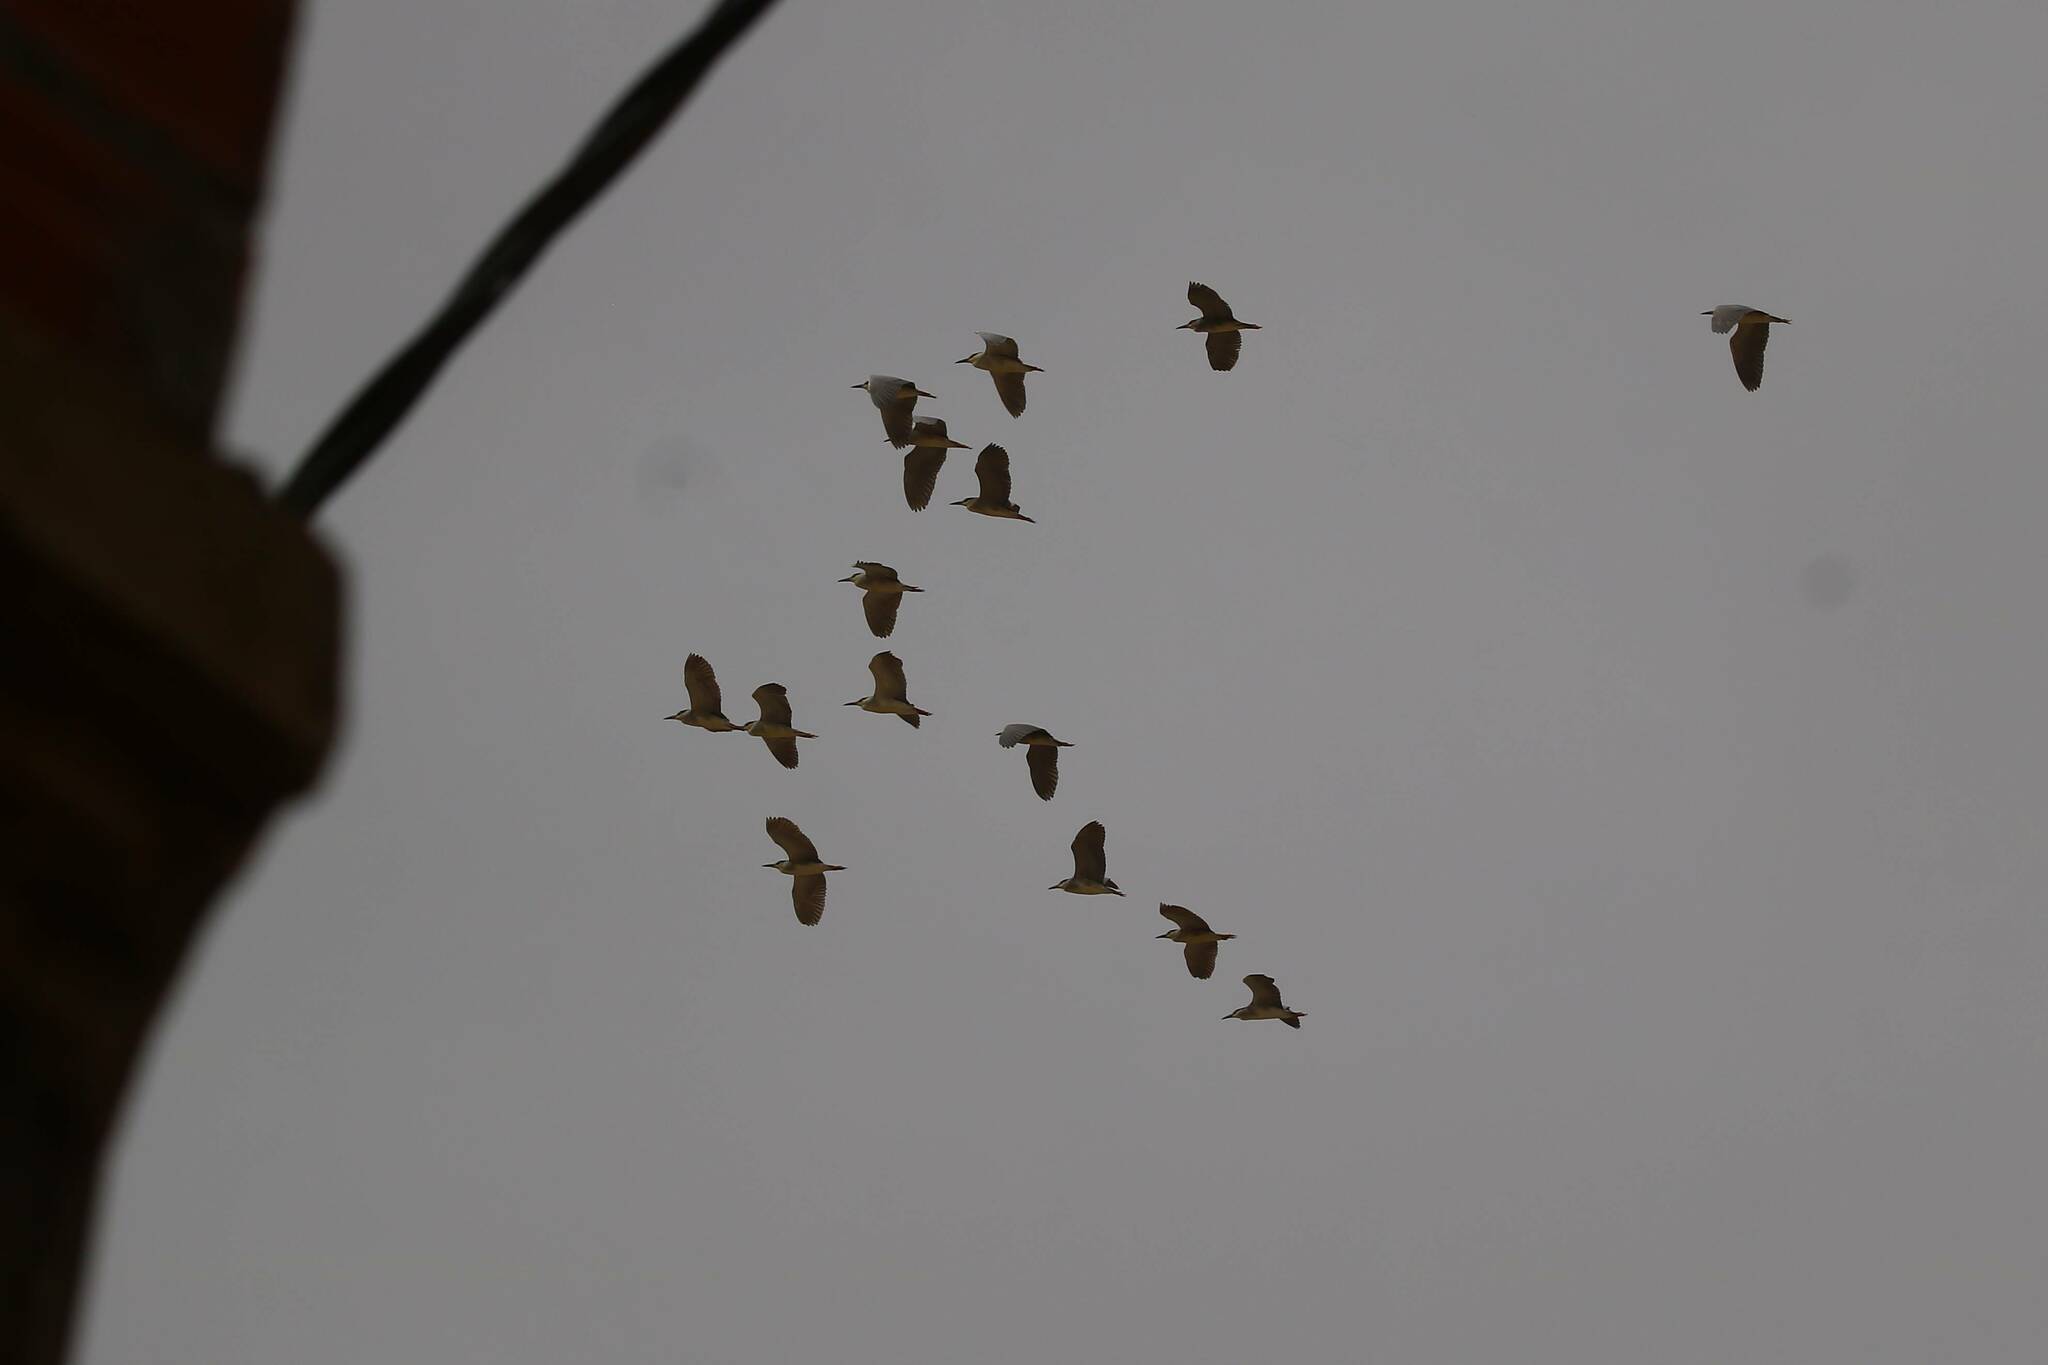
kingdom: Animalia
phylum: Chordata
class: Aves
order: Pelecaniformes
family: Ardeidae
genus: Nycticorax
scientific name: Nycticorax nycticorax
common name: Black-crowned night heron
